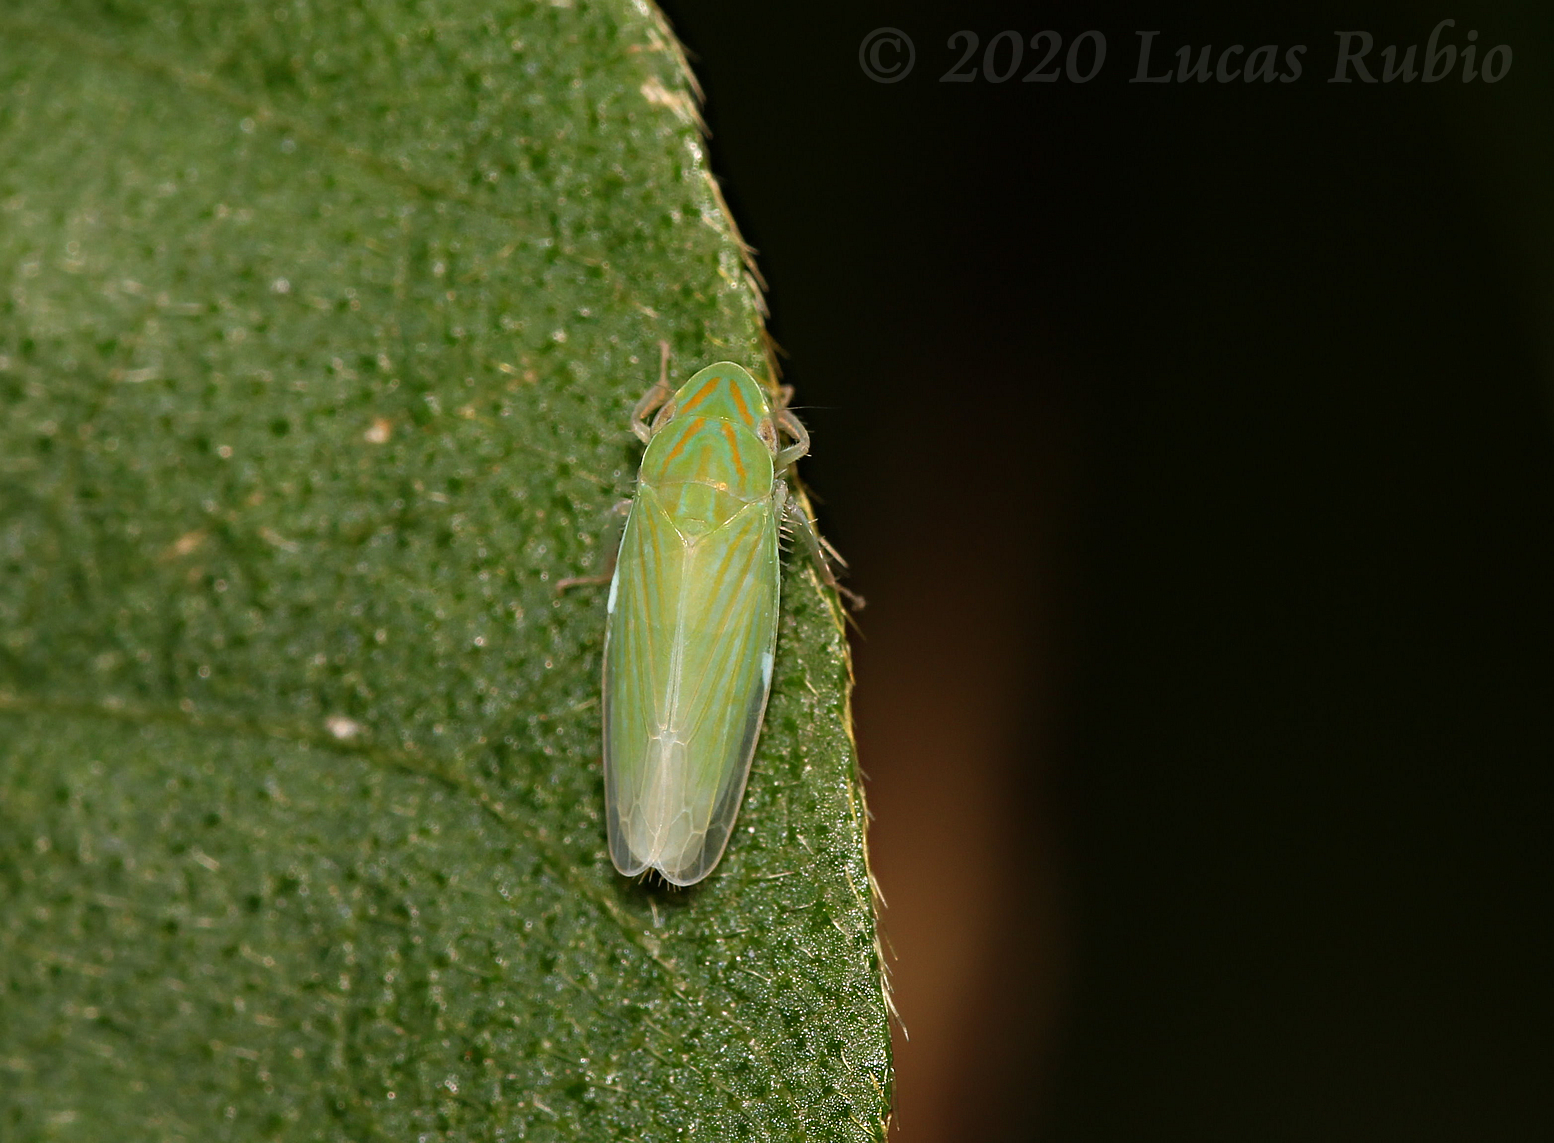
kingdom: Animalia
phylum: Arthropoda
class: Insecta
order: Hemiptera
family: Cicadellidae
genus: Spangbergiella
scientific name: Spangbergiella vulnerata
